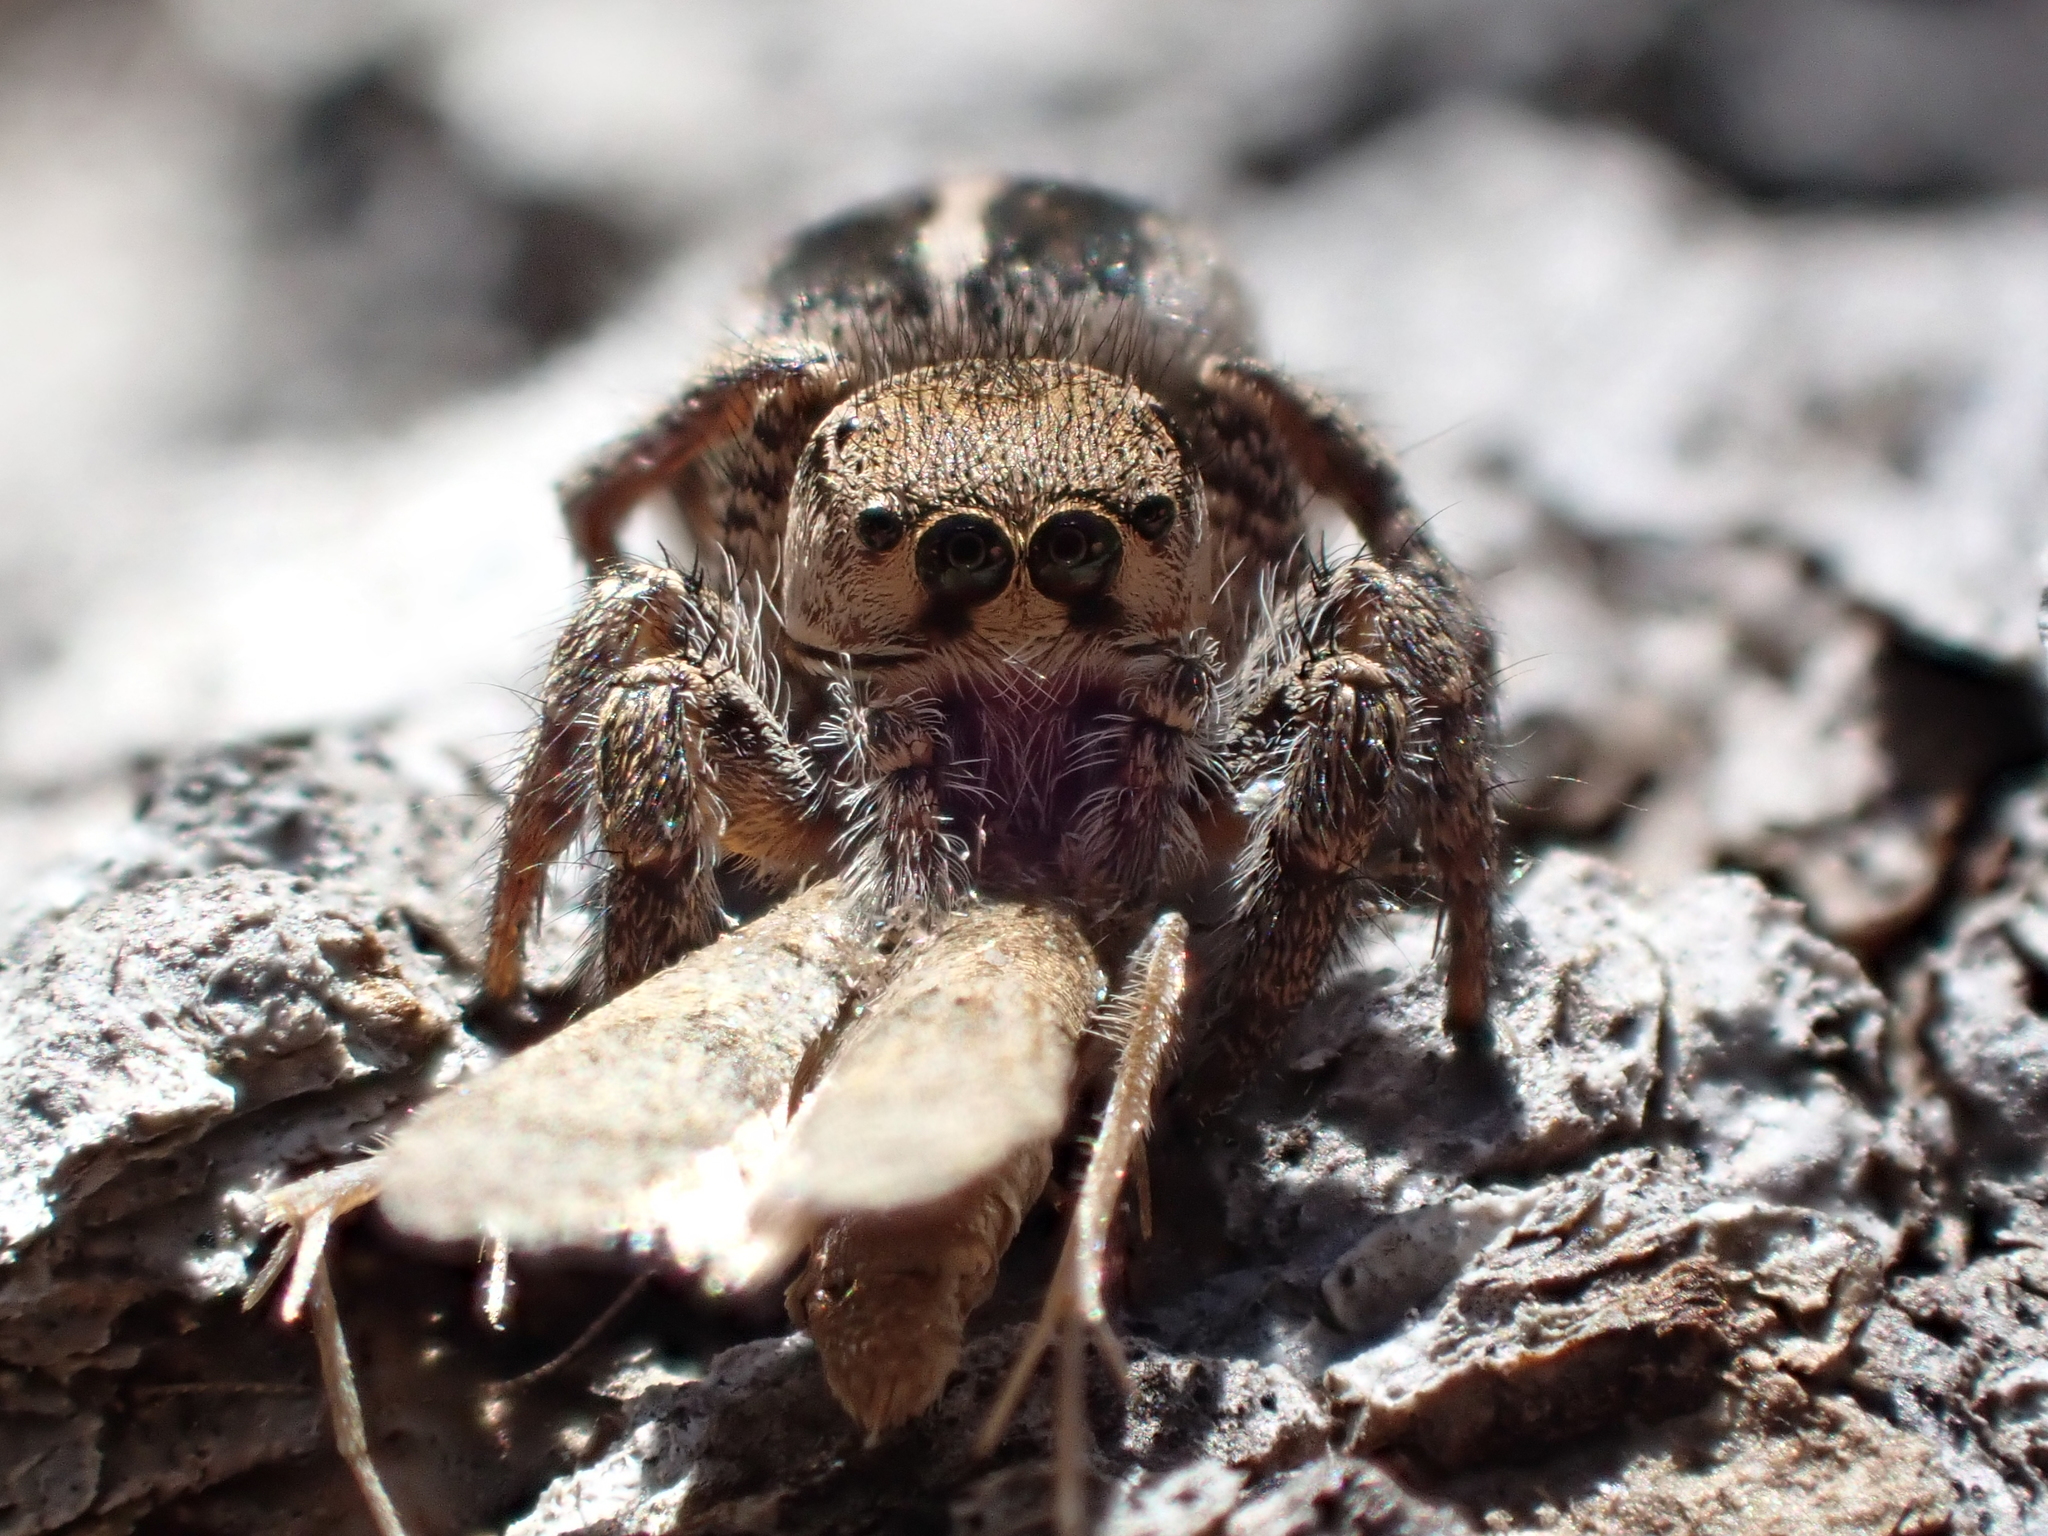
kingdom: Animalia
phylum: Arthropoda
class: Arachnida
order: Araneae
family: Salticidae
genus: Habronattus
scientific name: Habronattus orbus
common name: Orbus paradise spider
